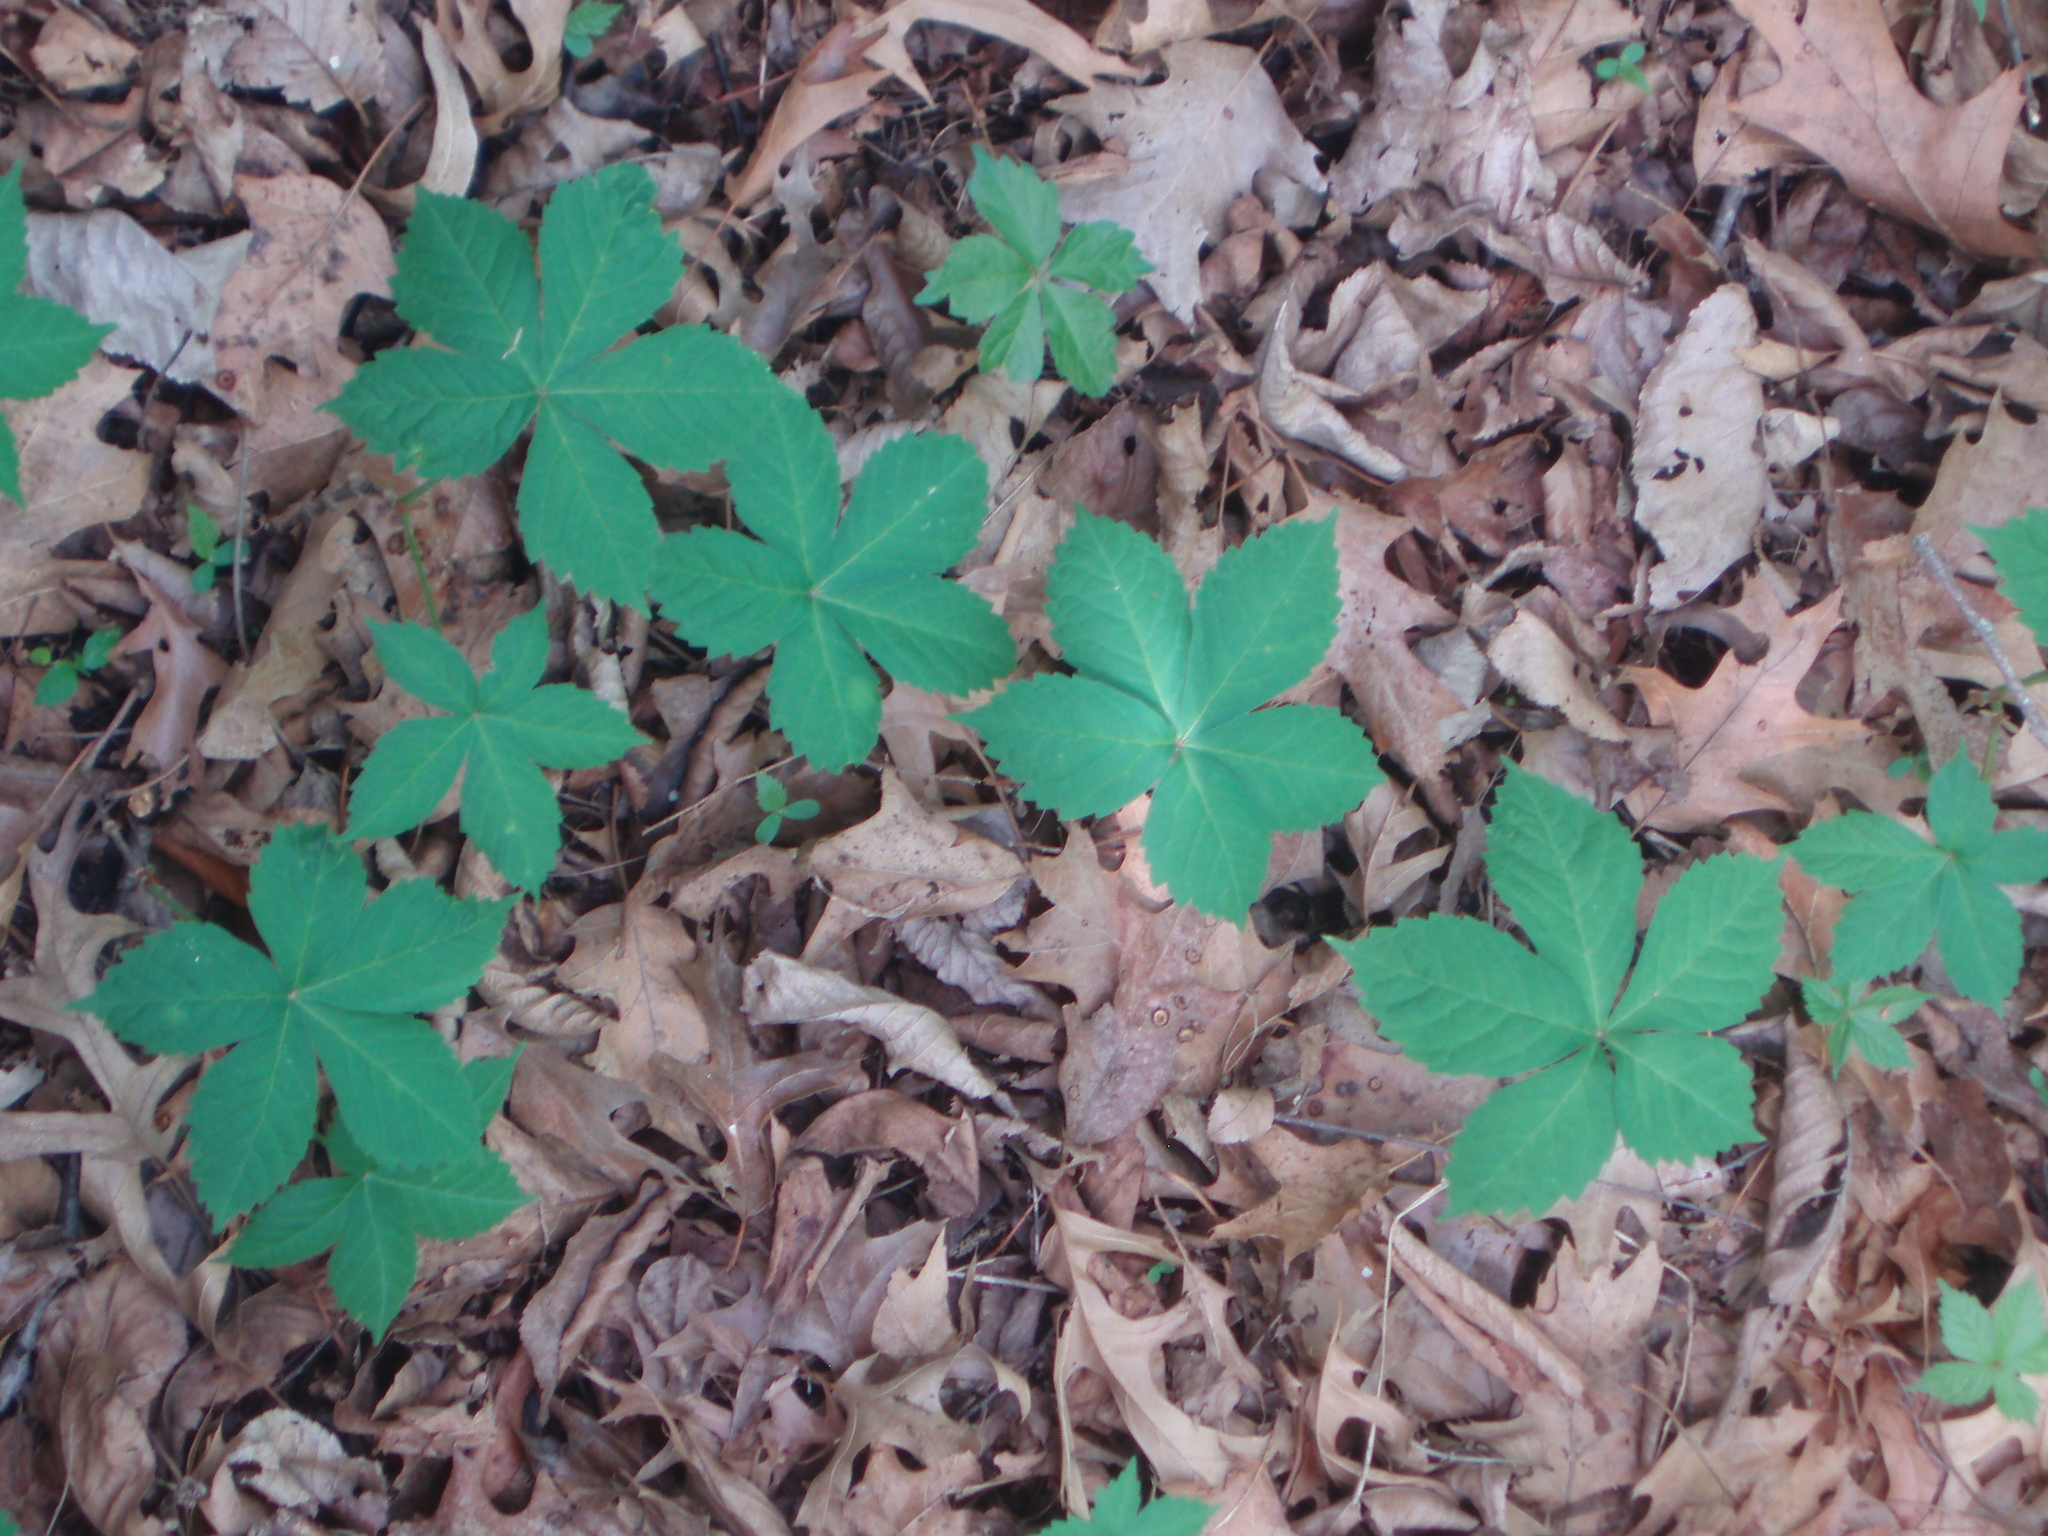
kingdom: Plantae
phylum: Tracheophyta
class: Magnoliopsida
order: Vitales
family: Vitaceae
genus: Parthenocissus
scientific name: Parthenocissus quinquefolia
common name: Virginia-creeper
